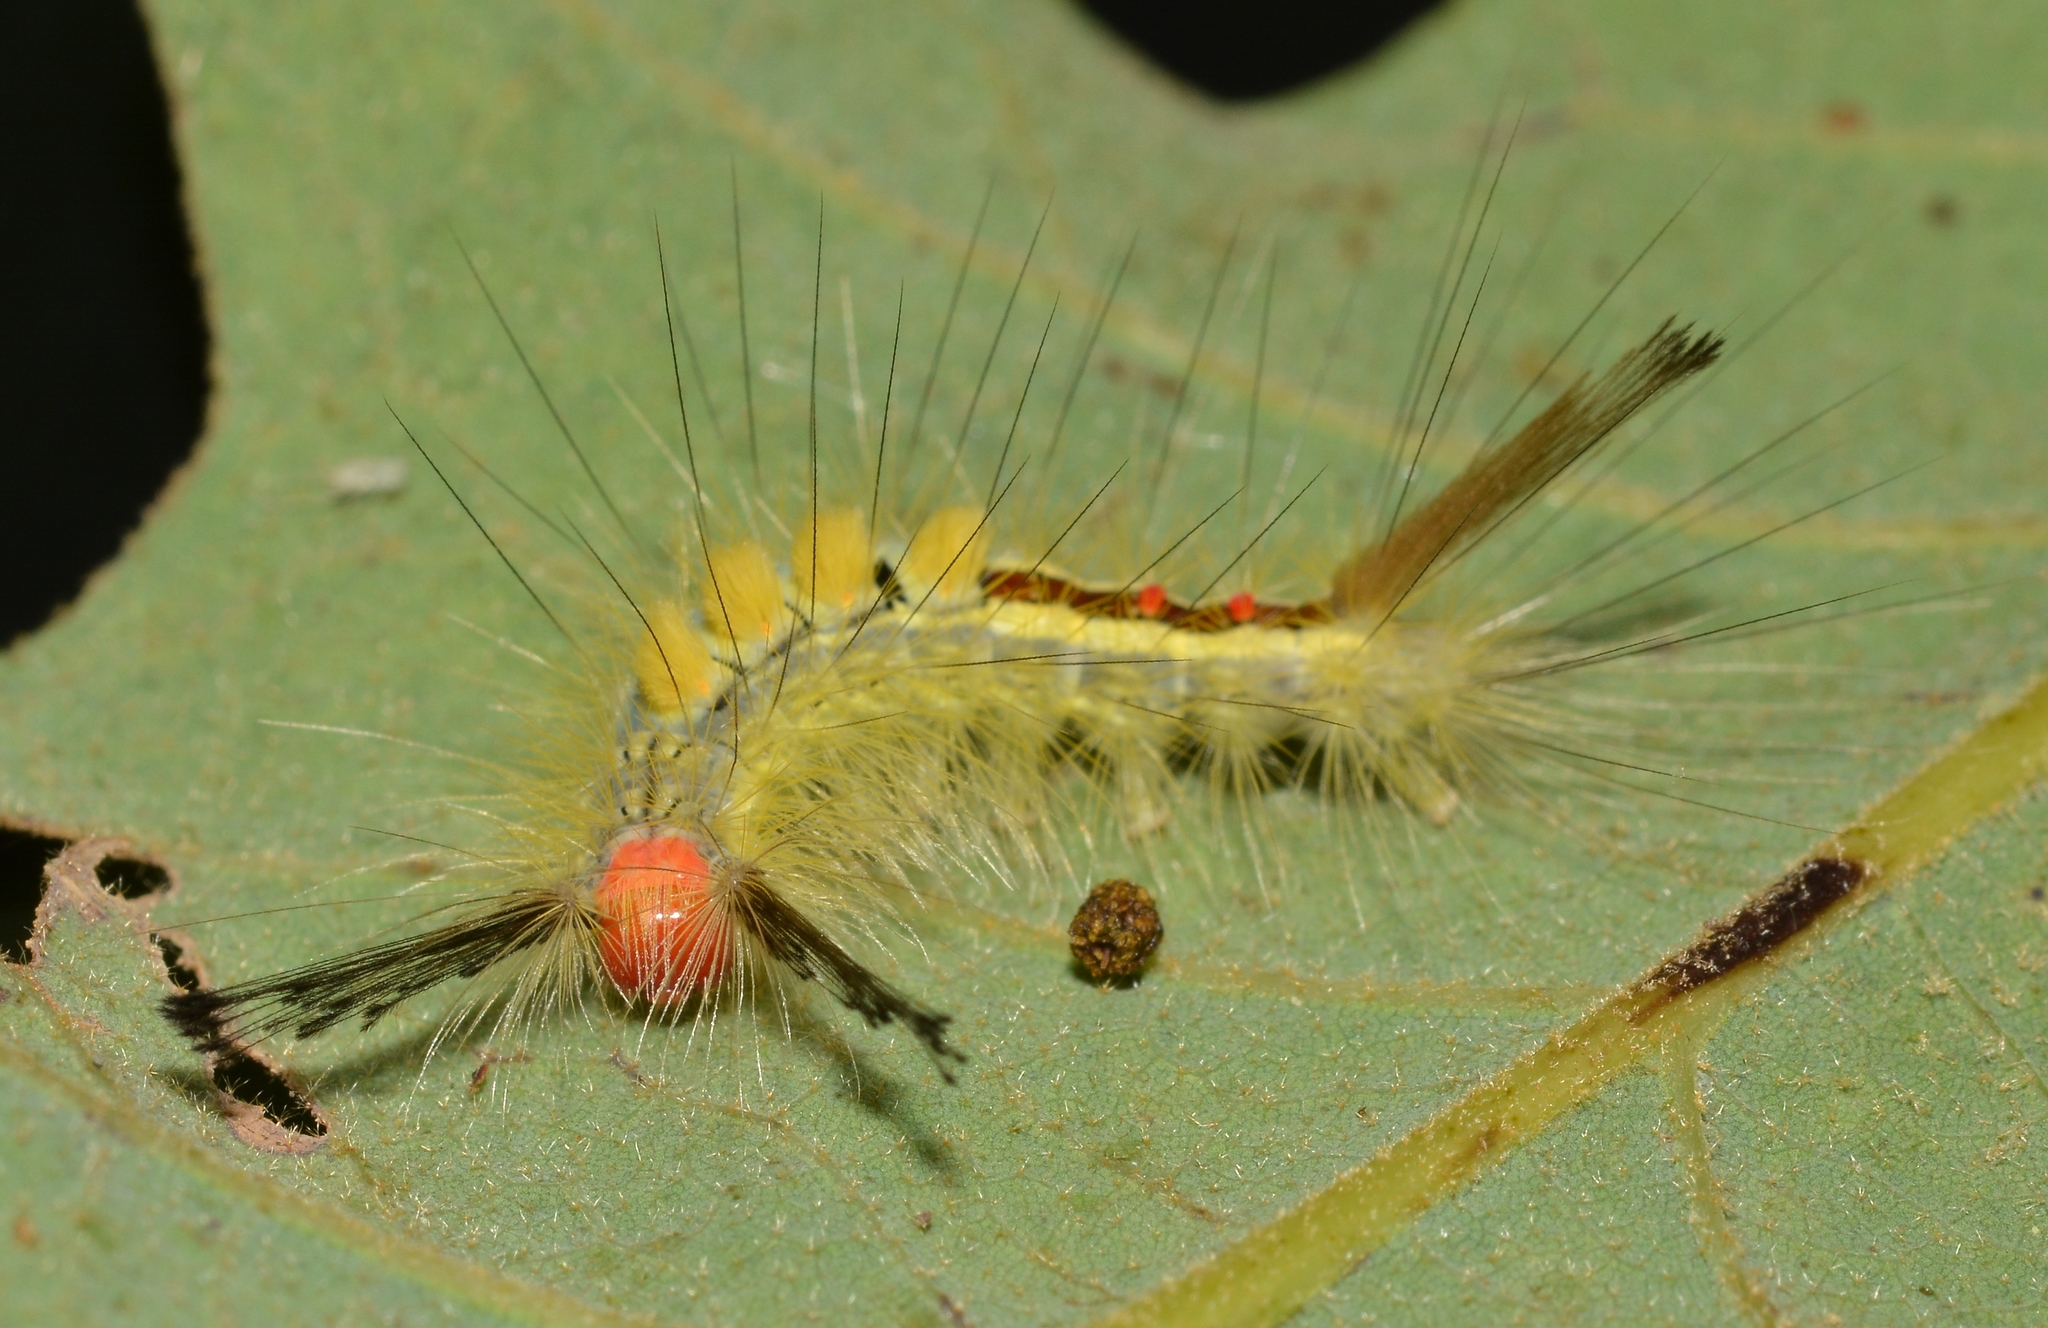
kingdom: Animalia
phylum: Arthropoda
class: Insecta
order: Lepidoptera
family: Erebidae
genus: Orgyia
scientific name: Orgyia leucostigma
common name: White-marked tussock moth
